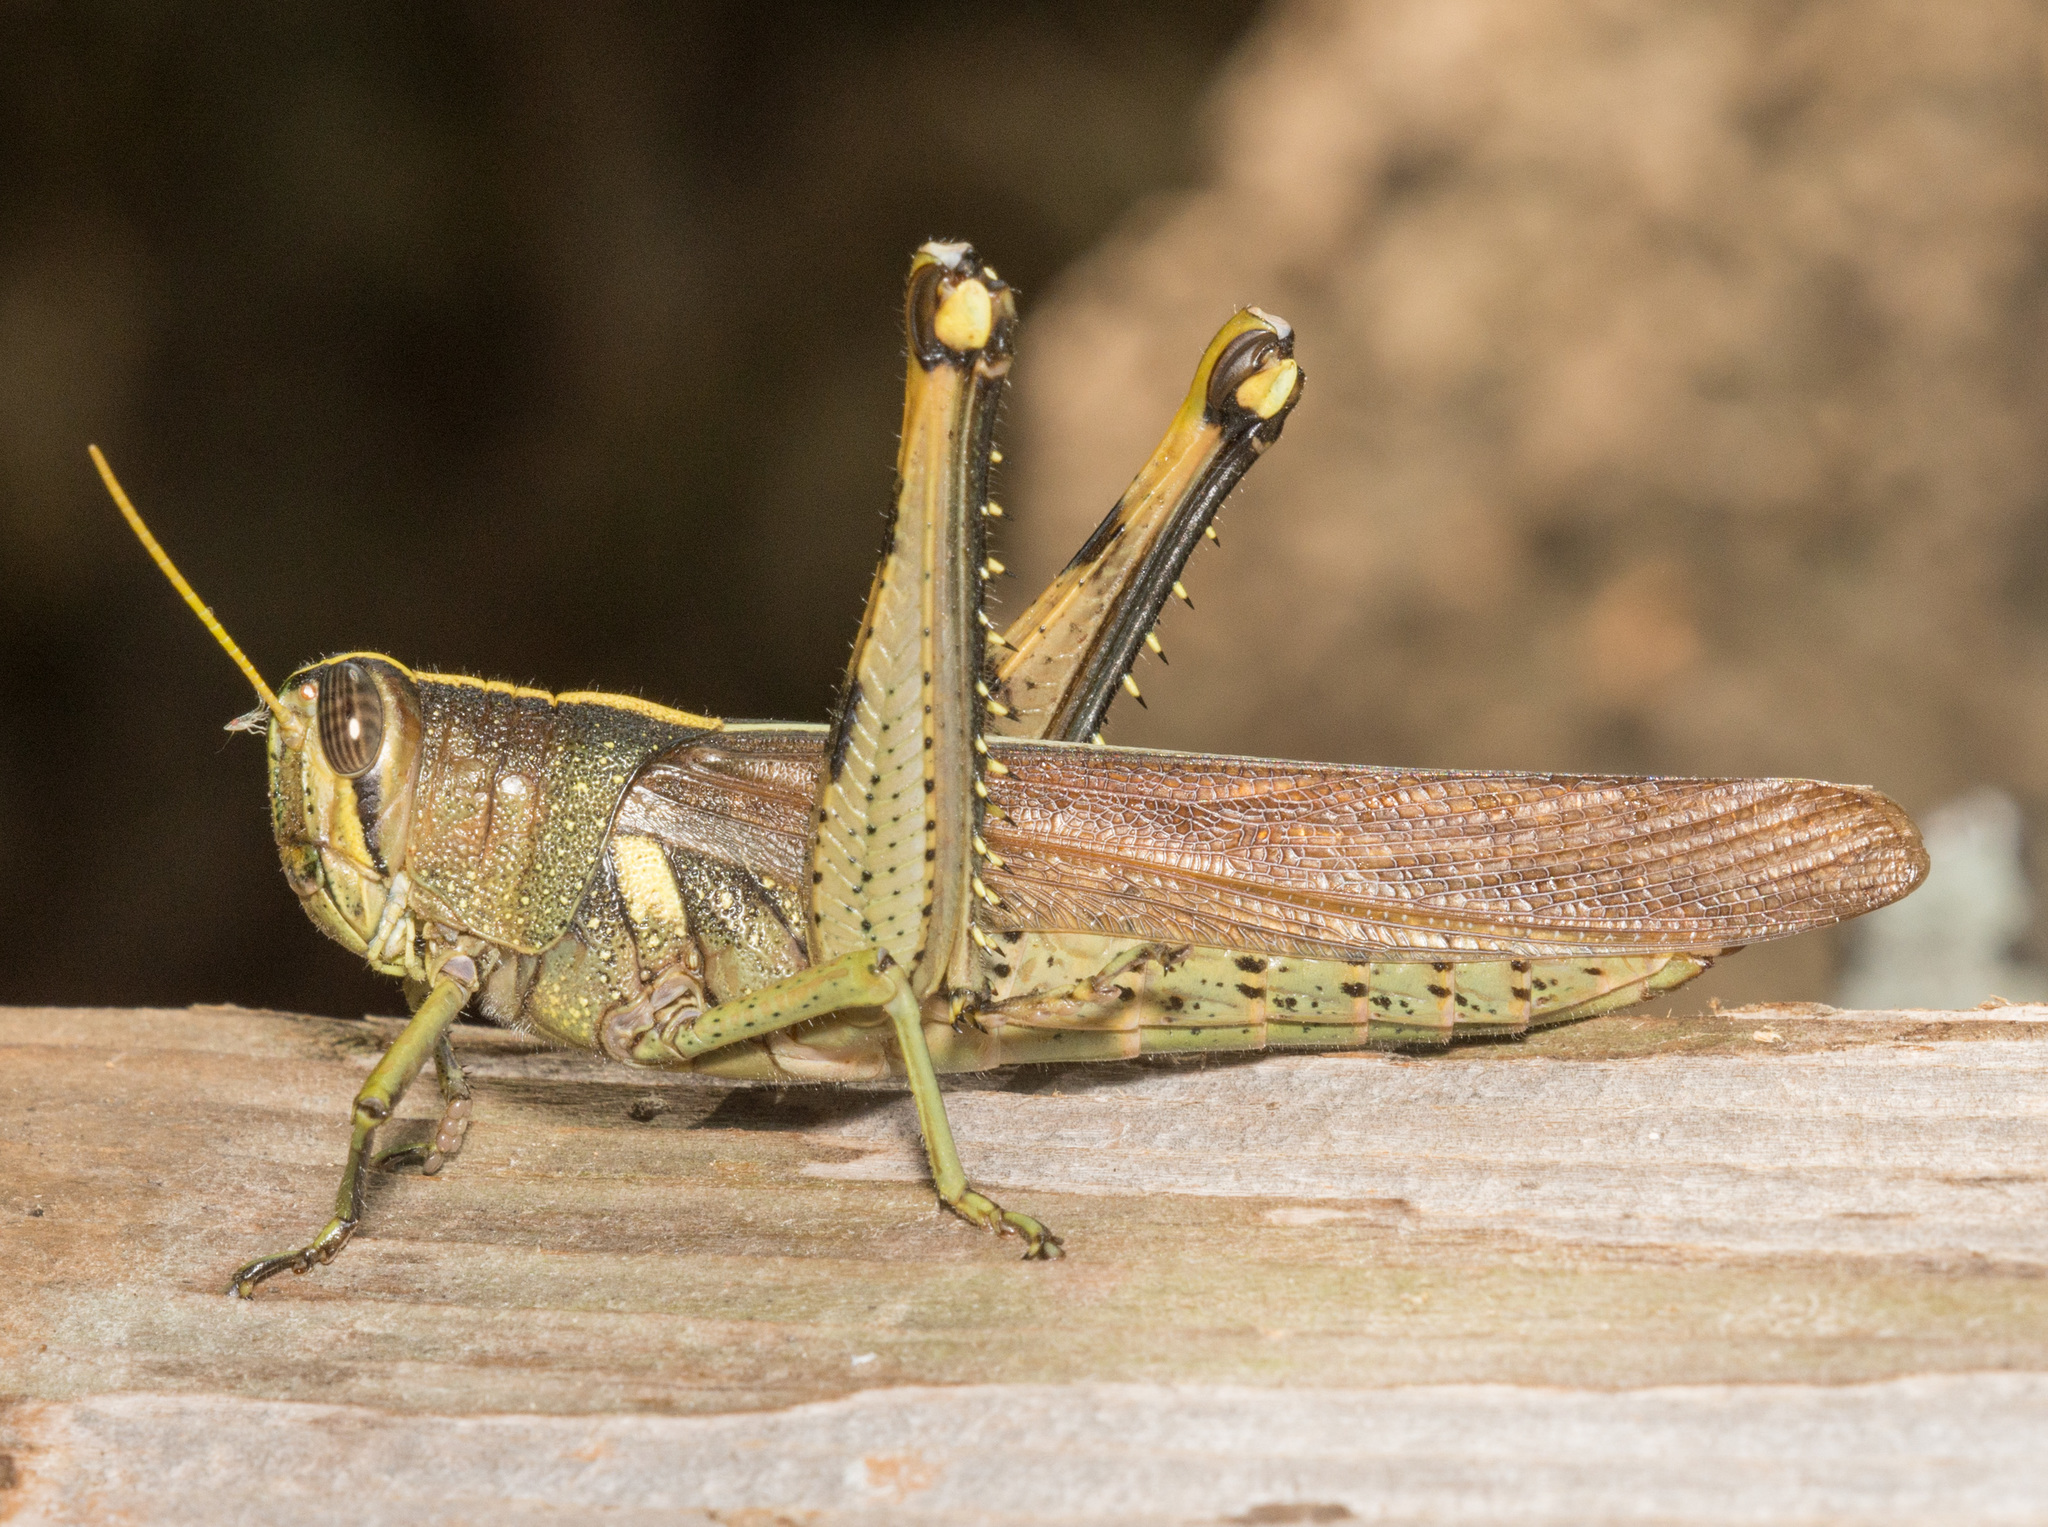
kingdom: Animalia
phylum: Arthropoda
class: Insecta
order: Orthoptera
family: Acrididae
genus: Schistocerca
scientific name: Schistocerca obscura
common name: Obscure bird grasshopper
